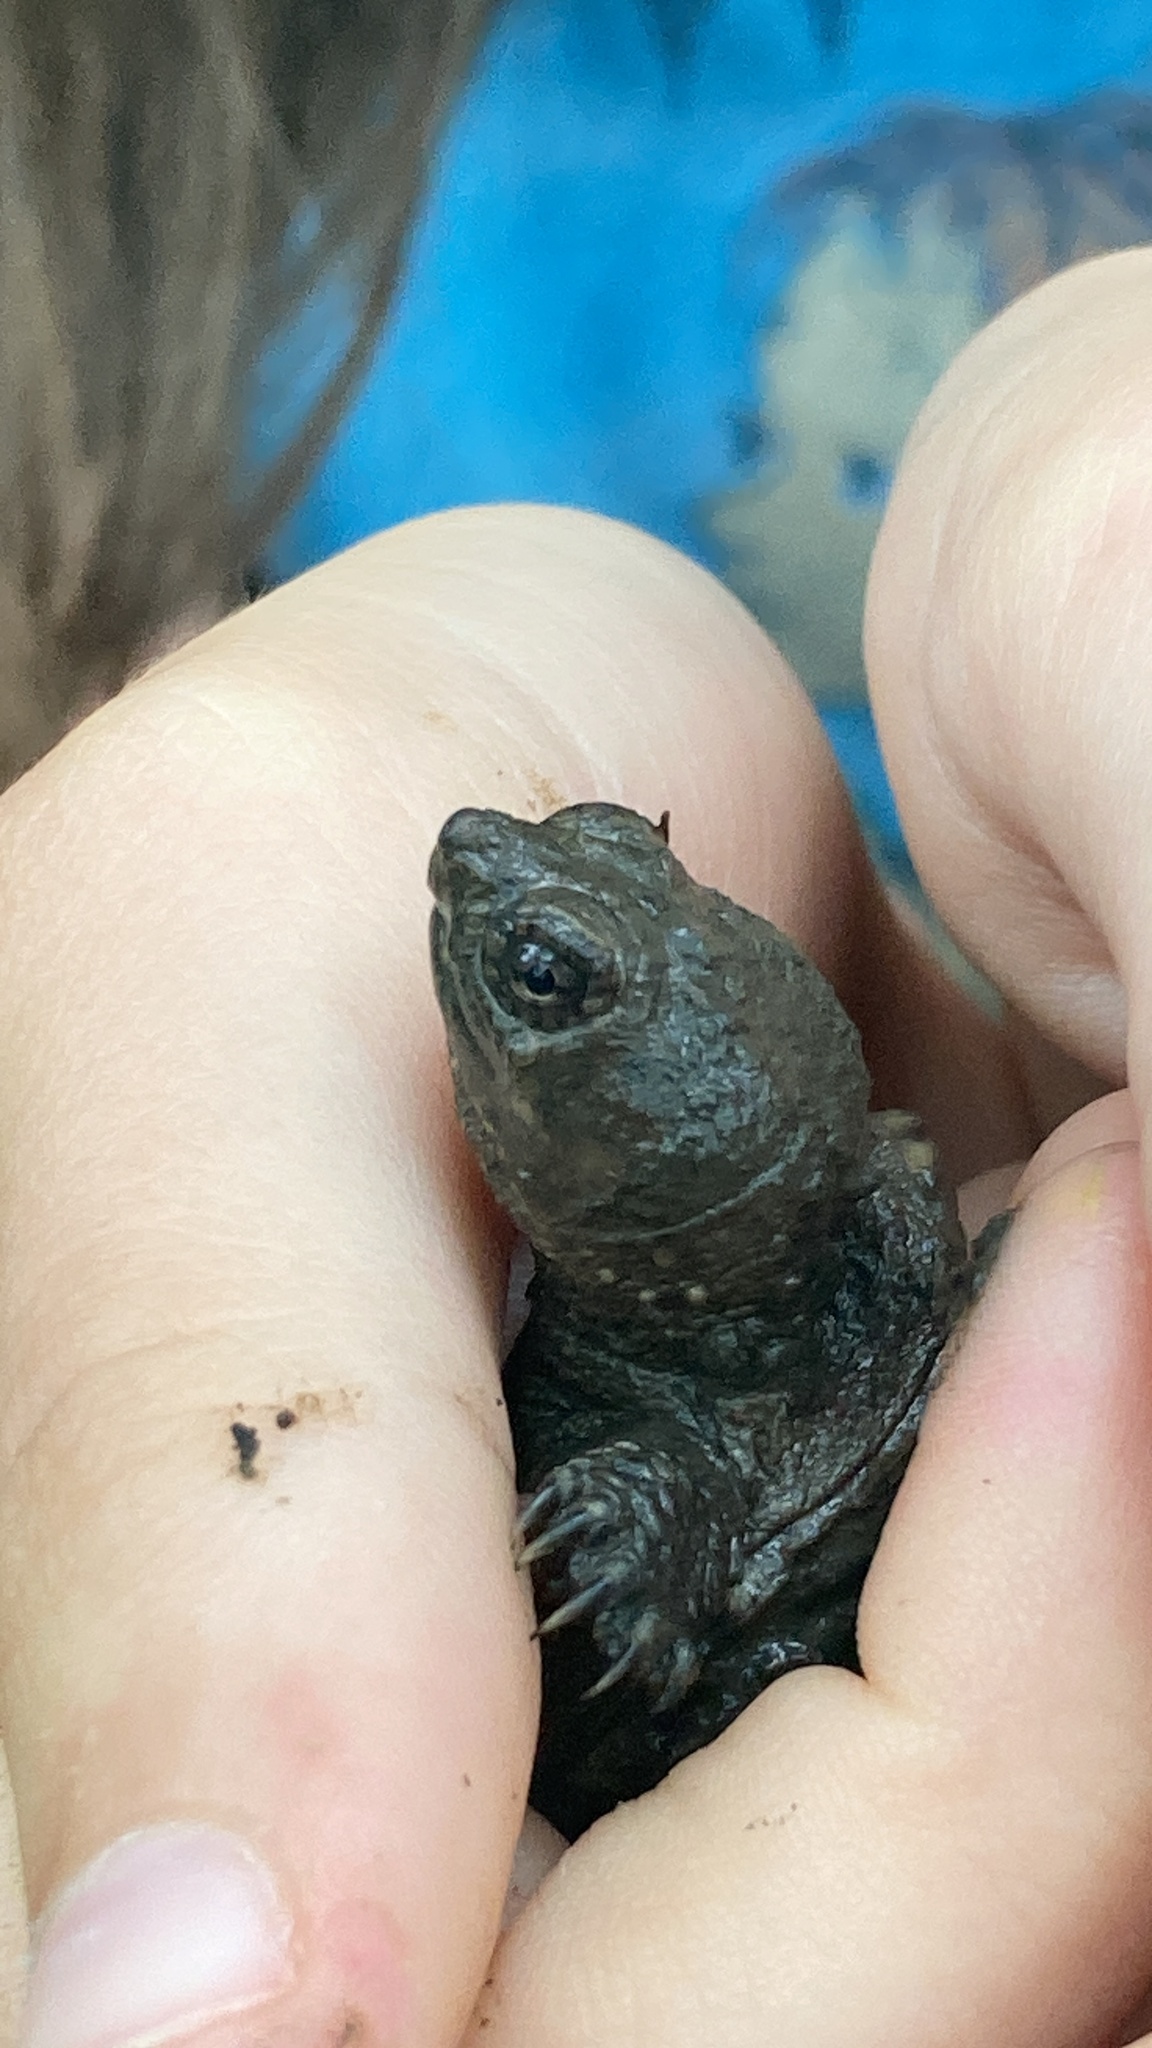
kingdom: Animalia
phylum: Chordata
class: Testudines
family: Chelydridae
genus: Chelydra
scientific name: Chelydra serpentina
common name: Common snapping turtle
